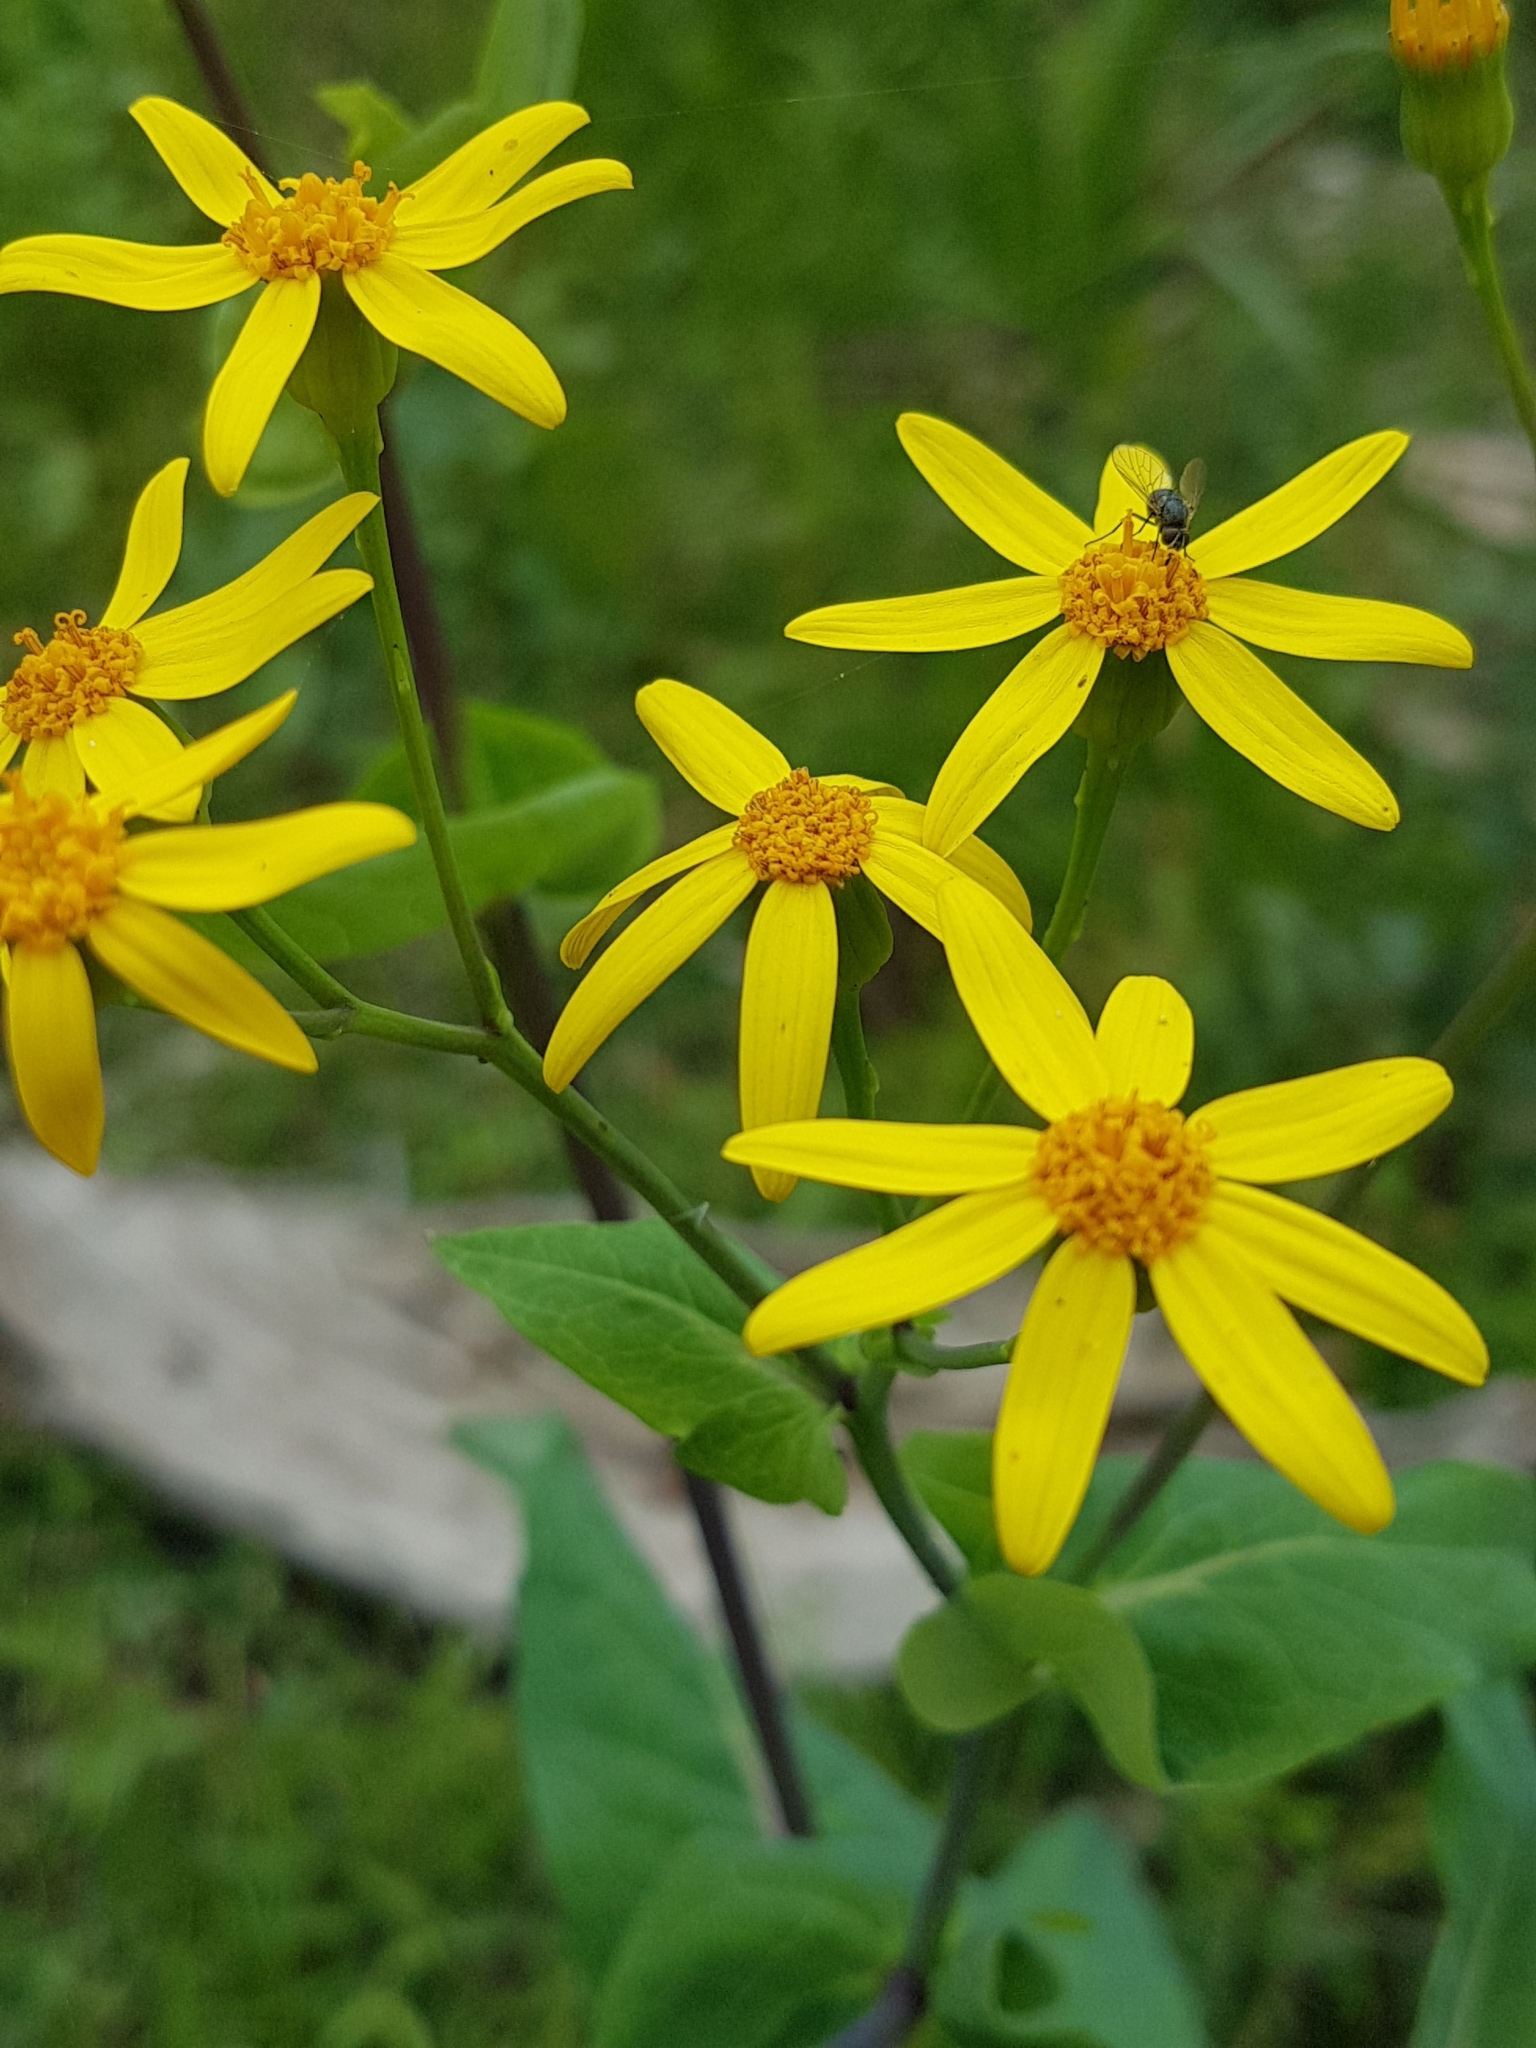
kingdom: Plantae
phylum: Tracheophyta
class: Magnoliopsida
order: Asterales
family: Asteraceae
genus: Lordhowea
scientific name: Lordhowea velleioides
